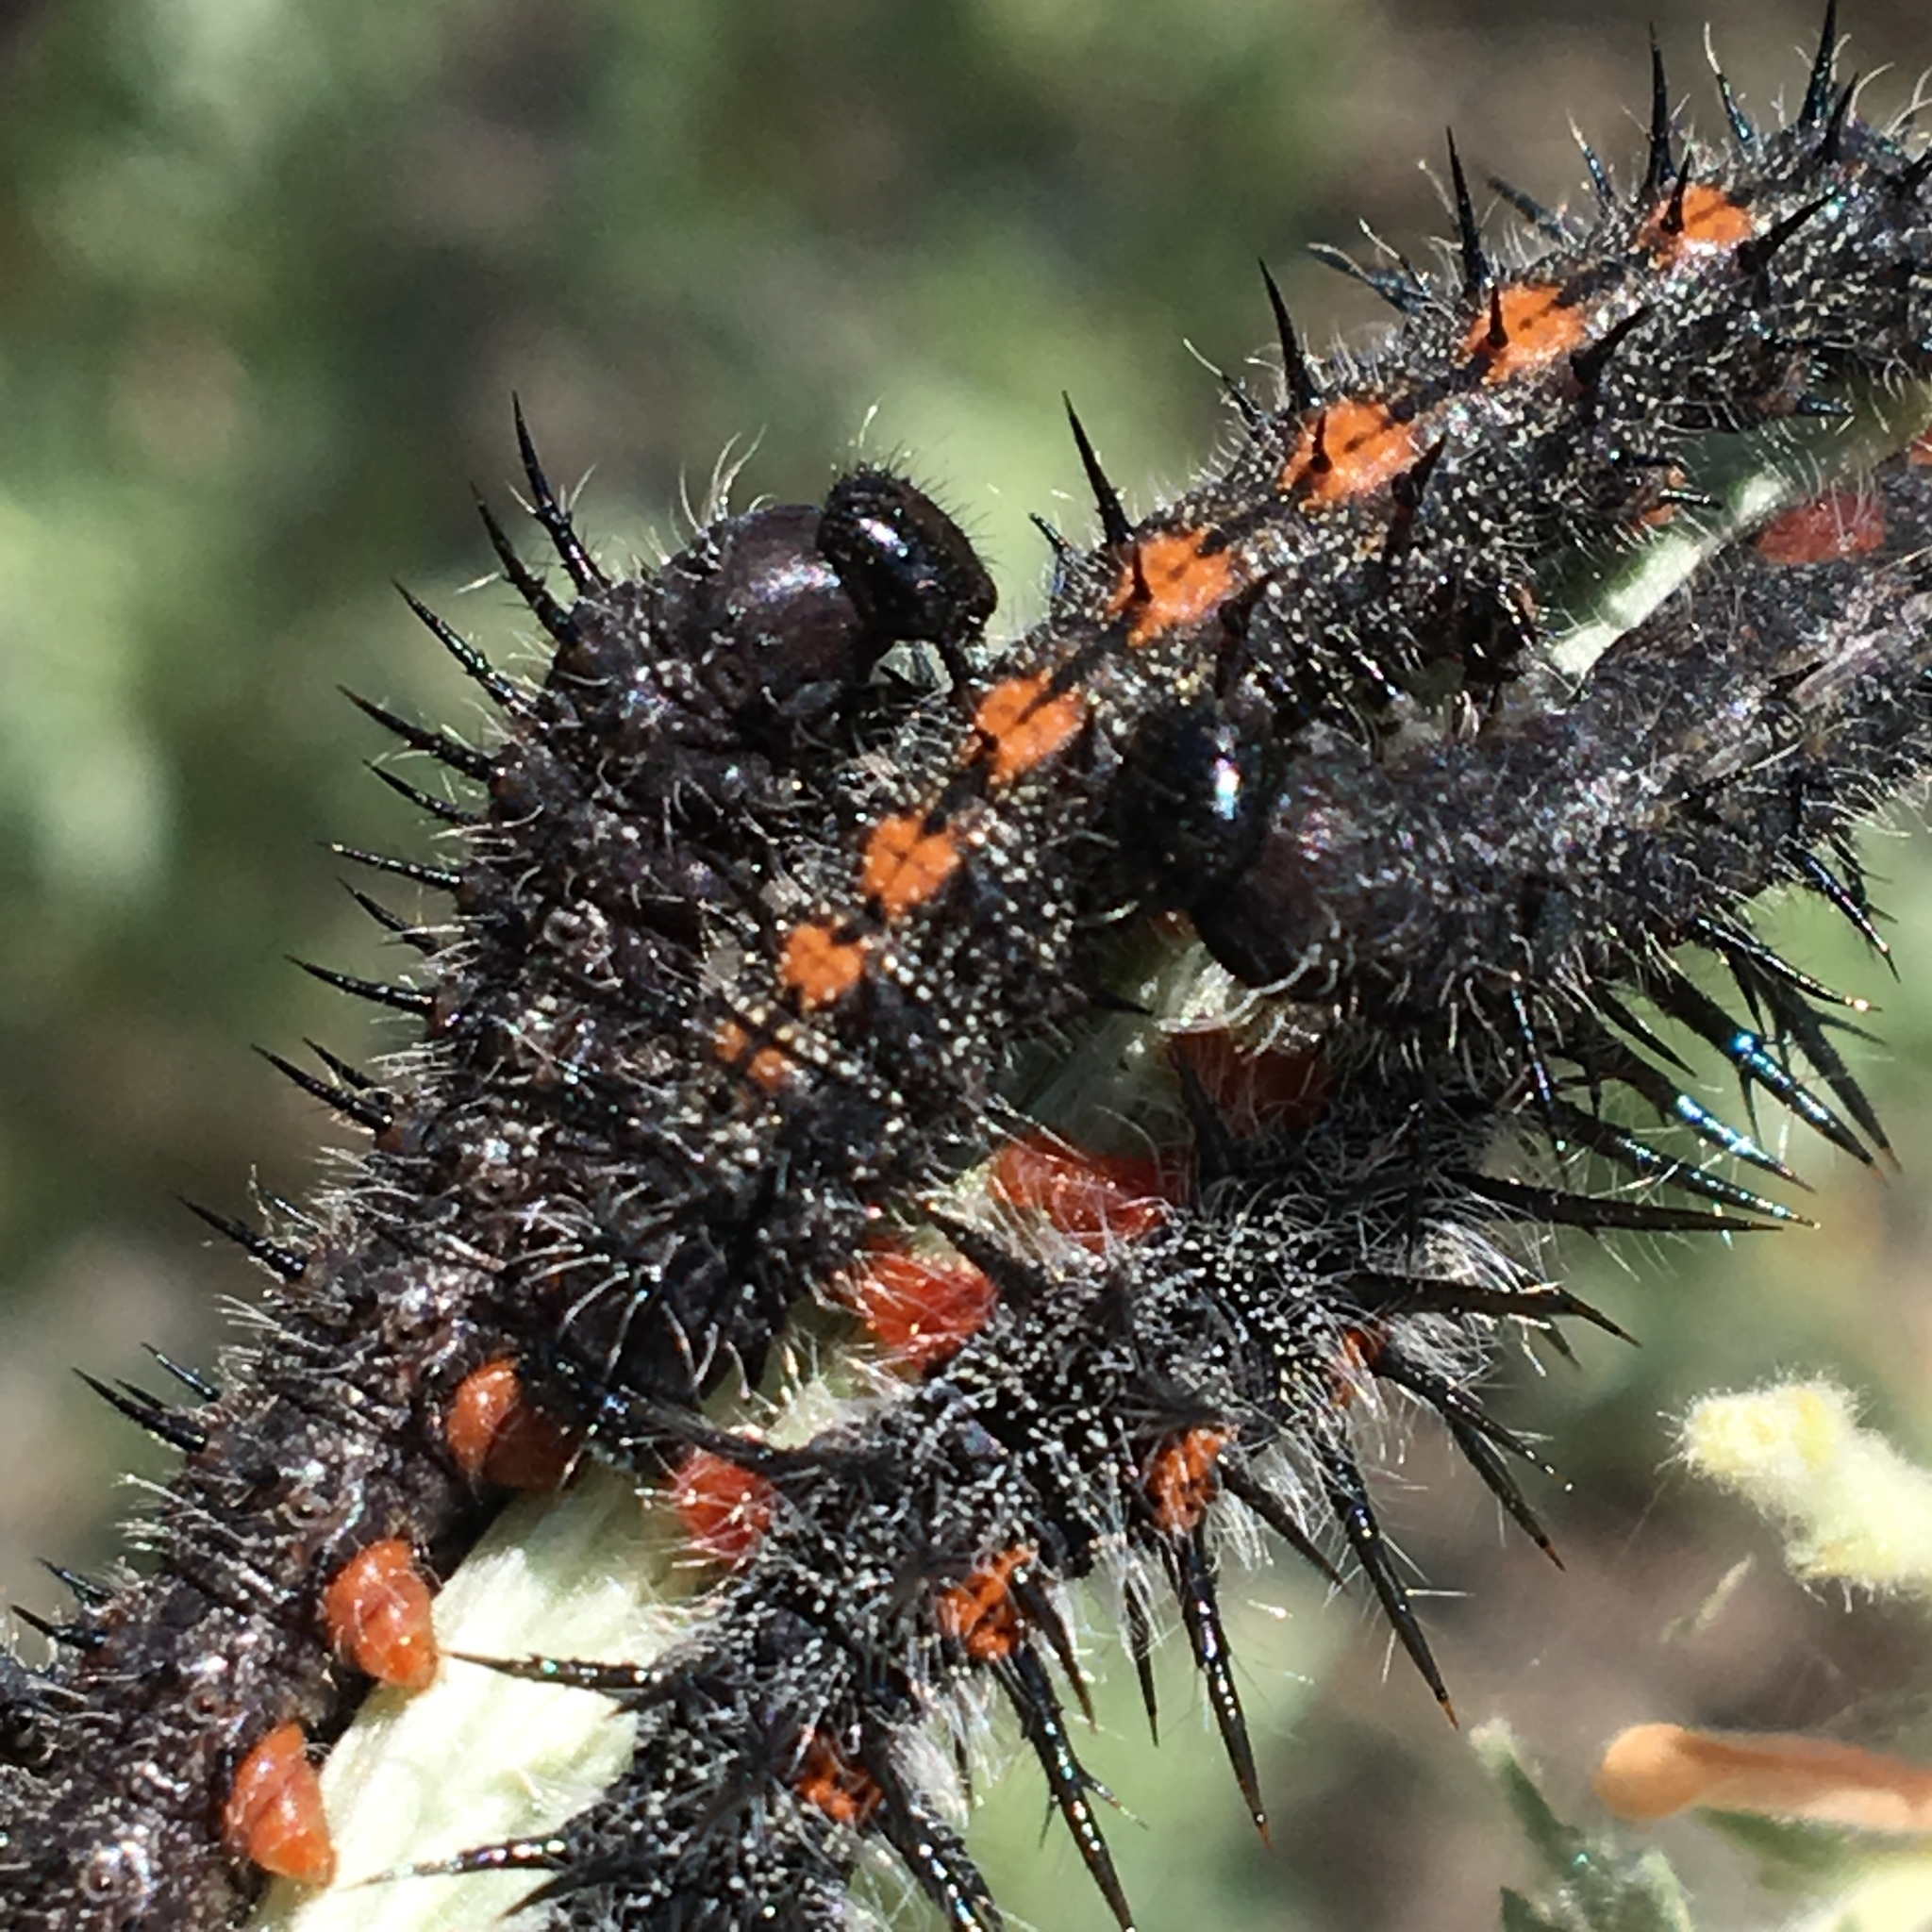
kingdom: Animalia
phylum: Arthropoda
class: Insecta
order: Lepidoptera
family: Nymphalidae
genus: Nymphalis
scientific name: Nymphalis antiopa
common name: Camberwell beauty
